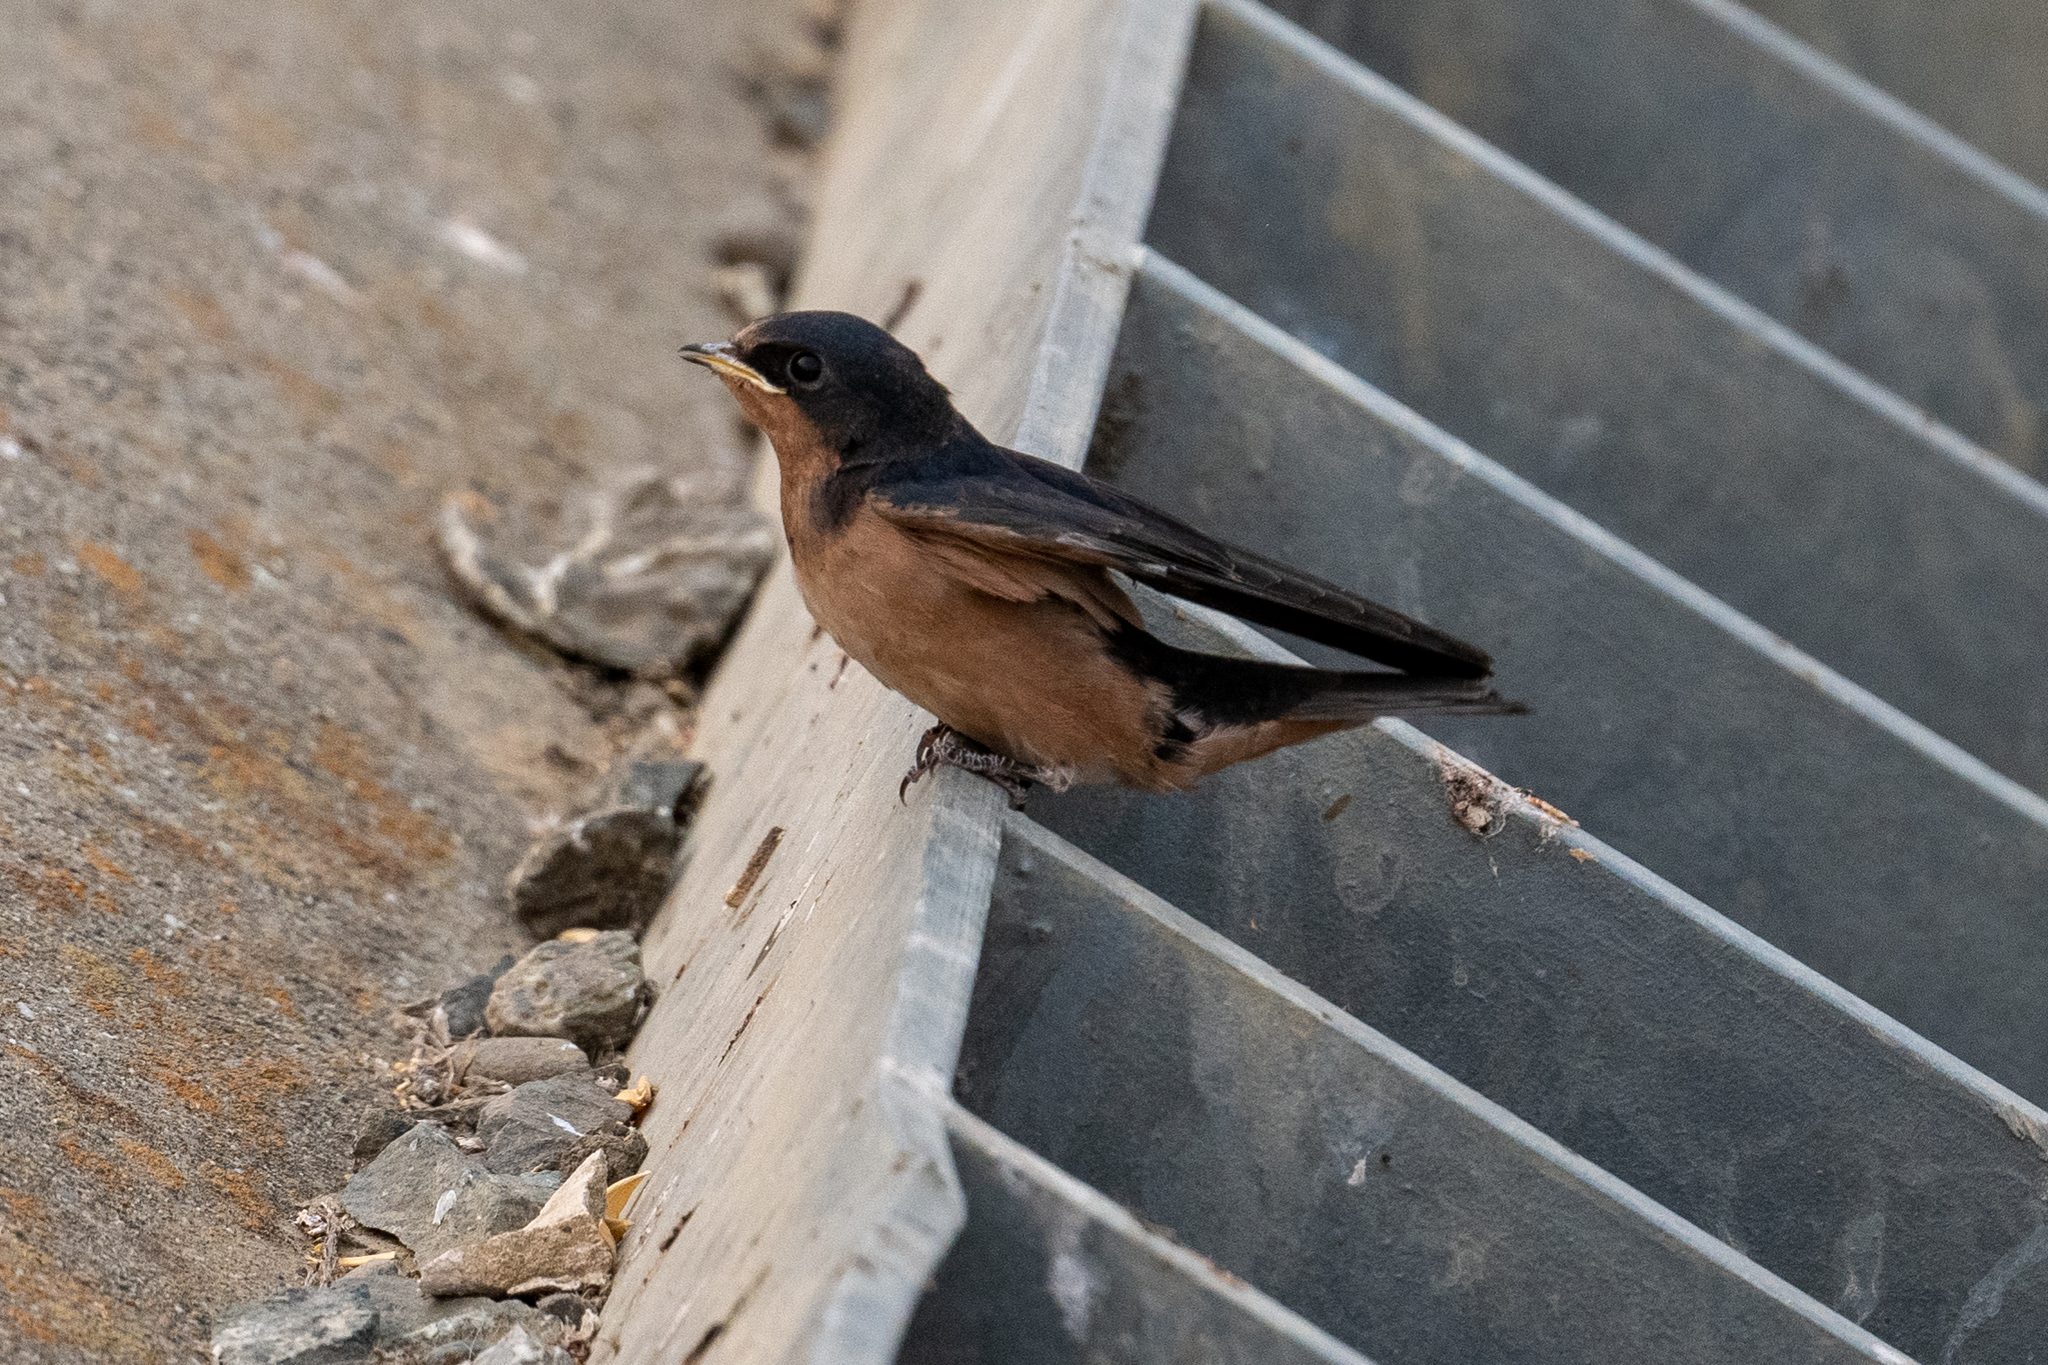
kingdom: Animalia
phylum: Chordata
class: Aves
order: Passeriformes
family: Hirundinidae
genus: Hirundo
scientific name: Hirundo rustica
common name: Barn swallow
